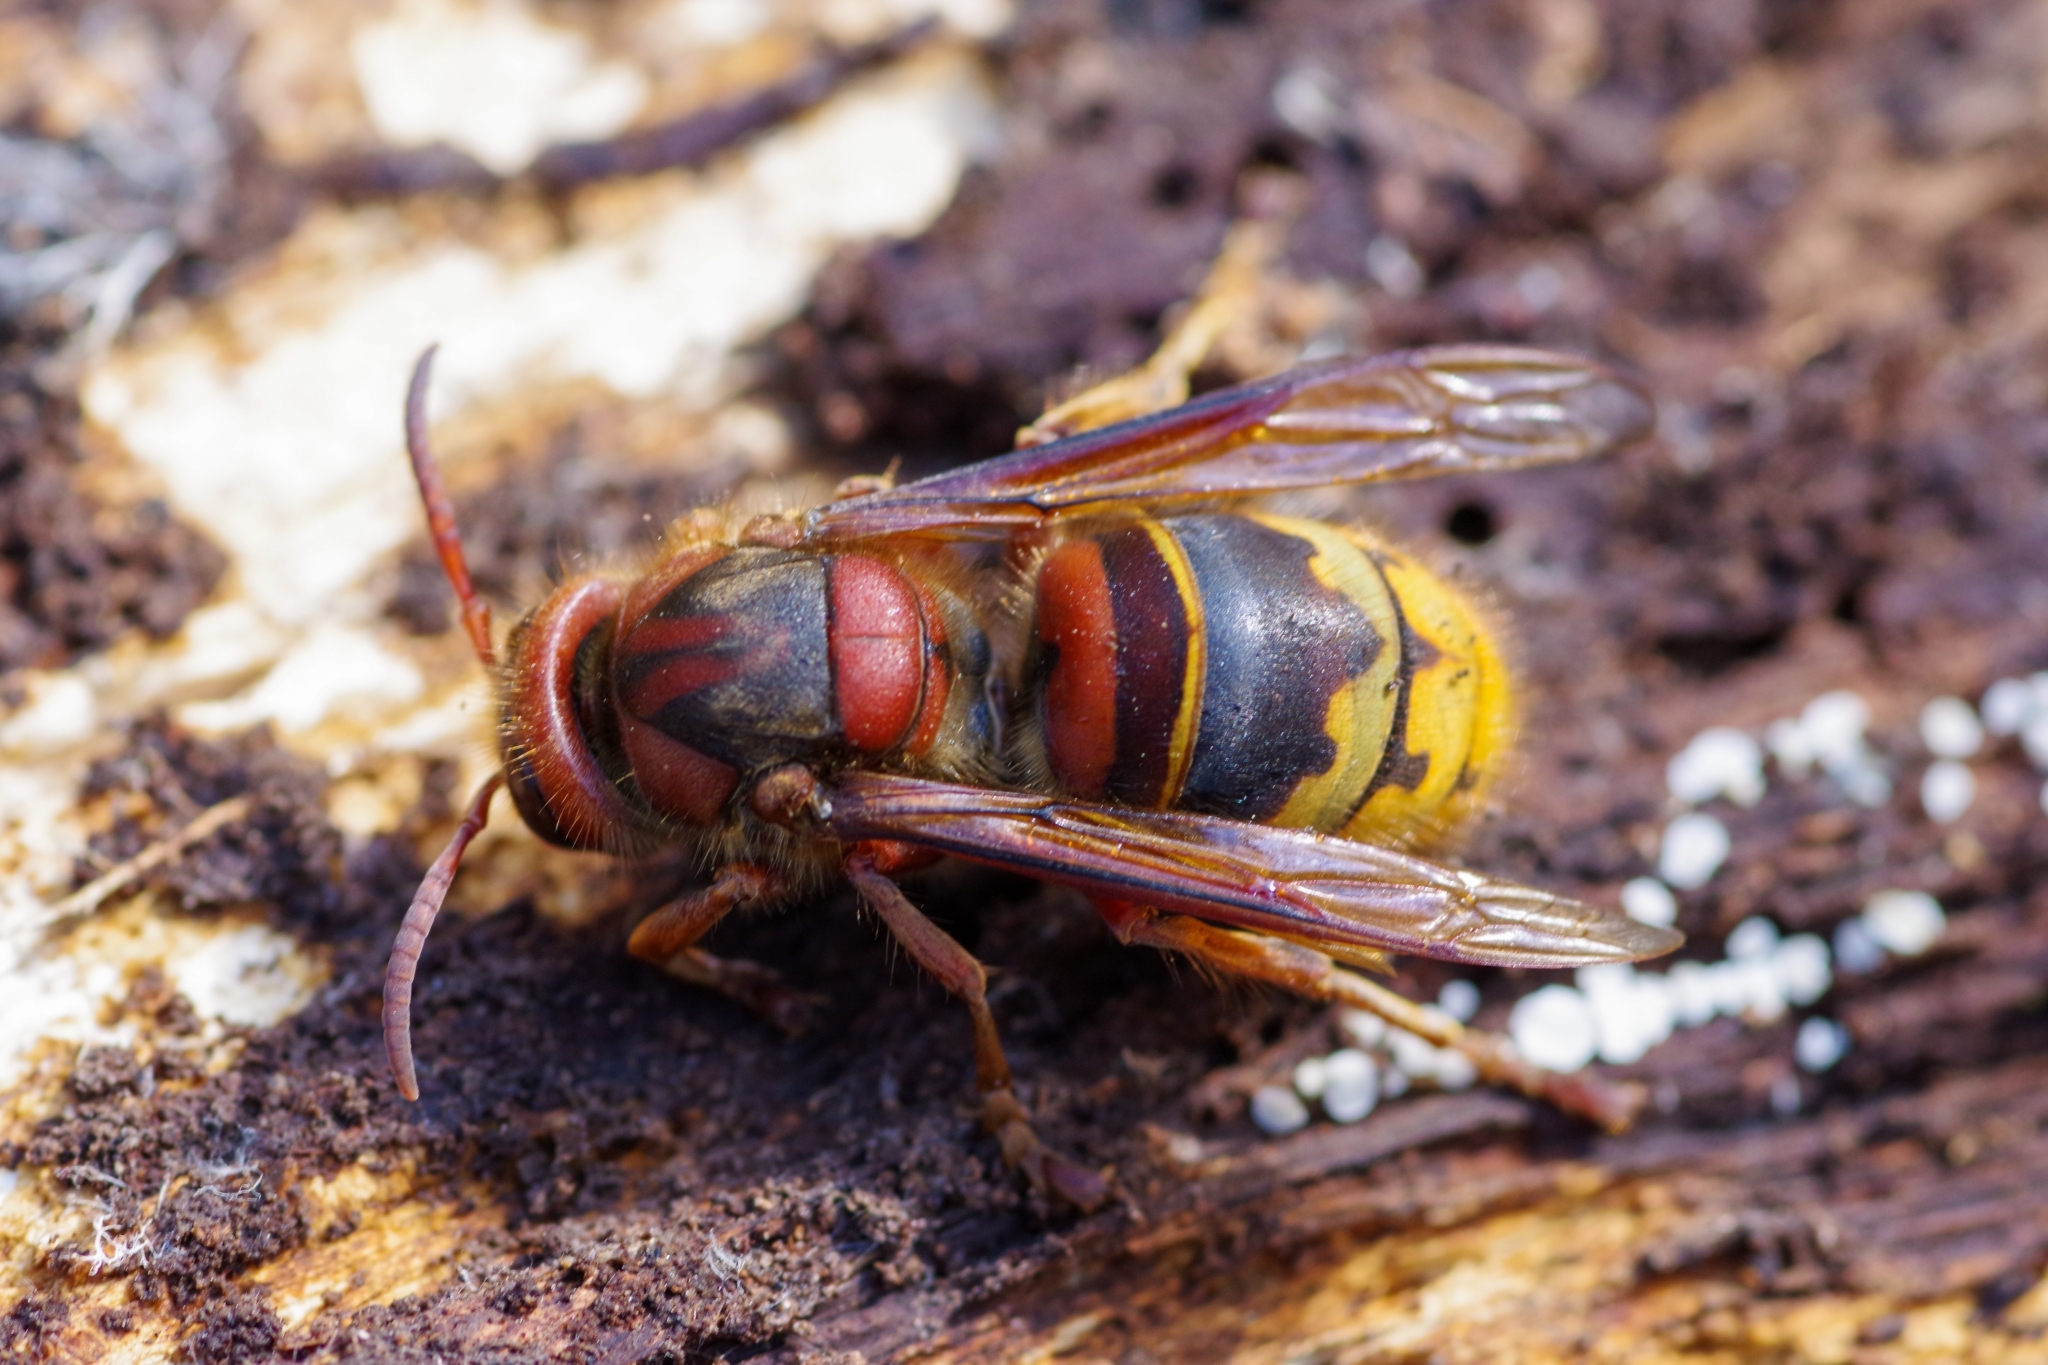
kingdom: Animalia
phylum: Arthropoda
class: Insecta
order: Hymenoptera
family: Vespidae
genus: Vespa
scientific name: Vespa crabro
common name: Hornet
